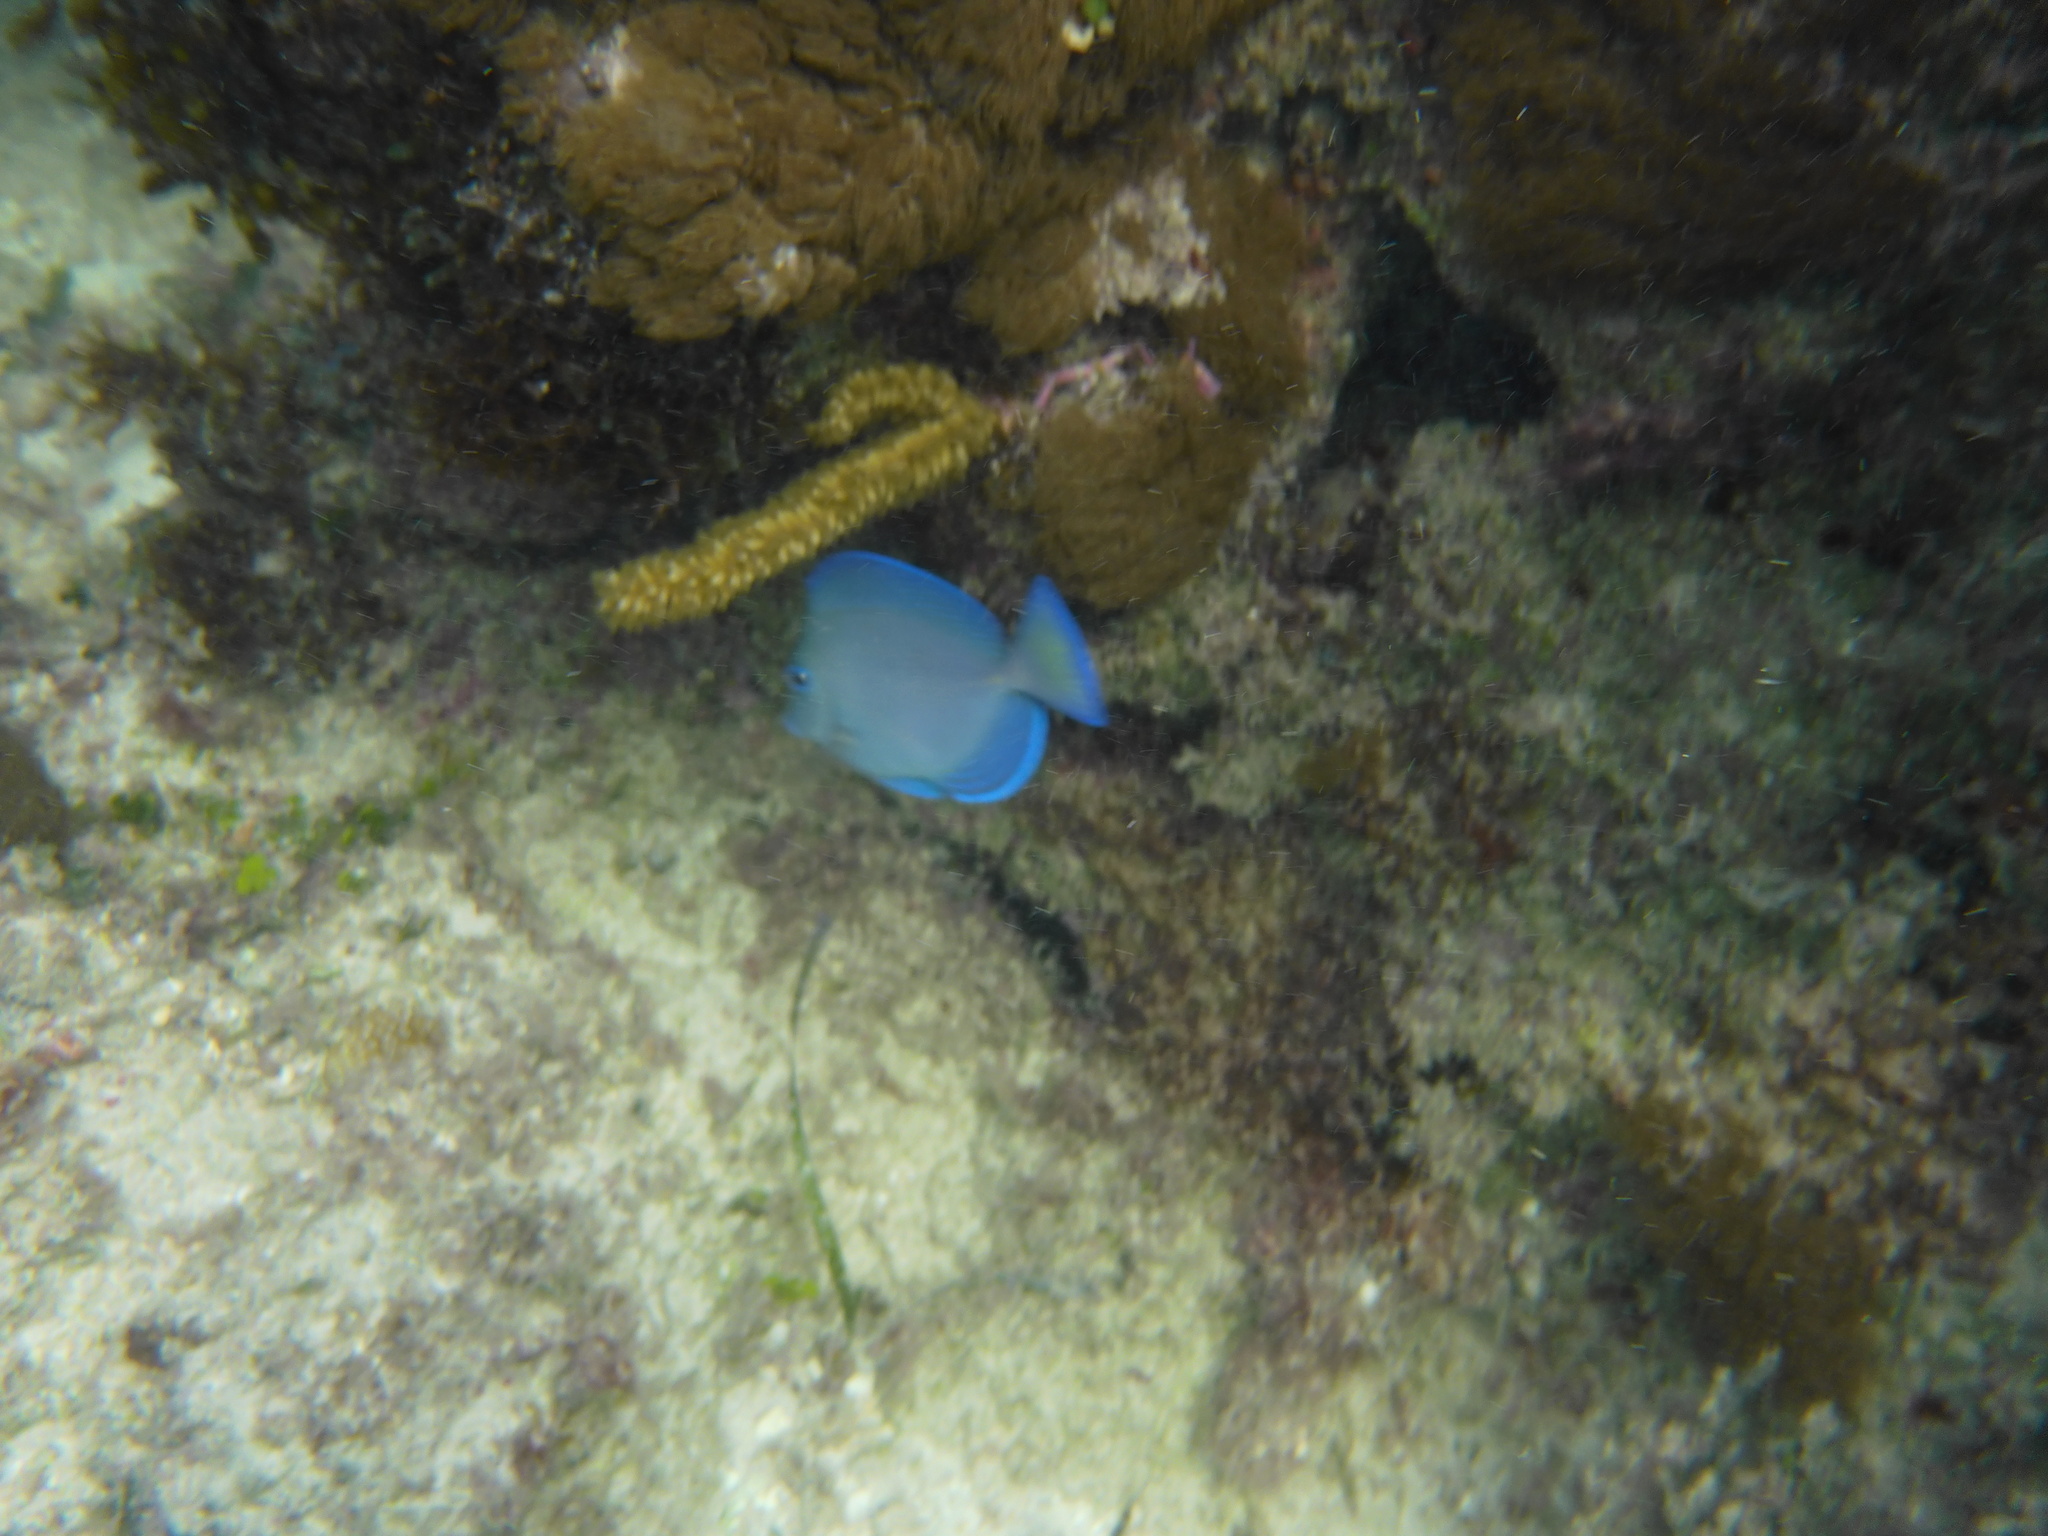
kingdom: Animalia
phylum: Chordata
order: Perciformes
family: Acanthuridae
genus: Acanthurus
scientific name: Acanthurus coeruleus
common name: Blue tang
